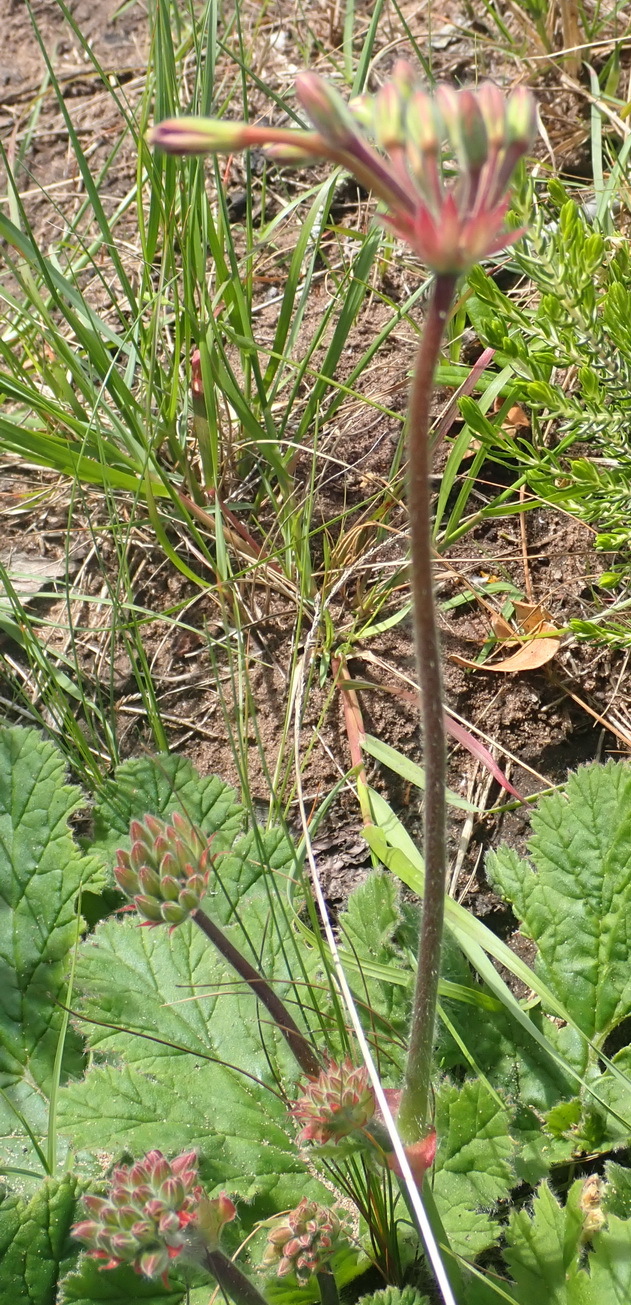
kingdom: Plantae
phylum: Tracheophyta
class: Magnoliopsida
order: Geraniales
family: Geraniaceae
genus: Pelargonium
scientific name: Pelargonium lobatum
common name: Vine-leaf pelargonium
